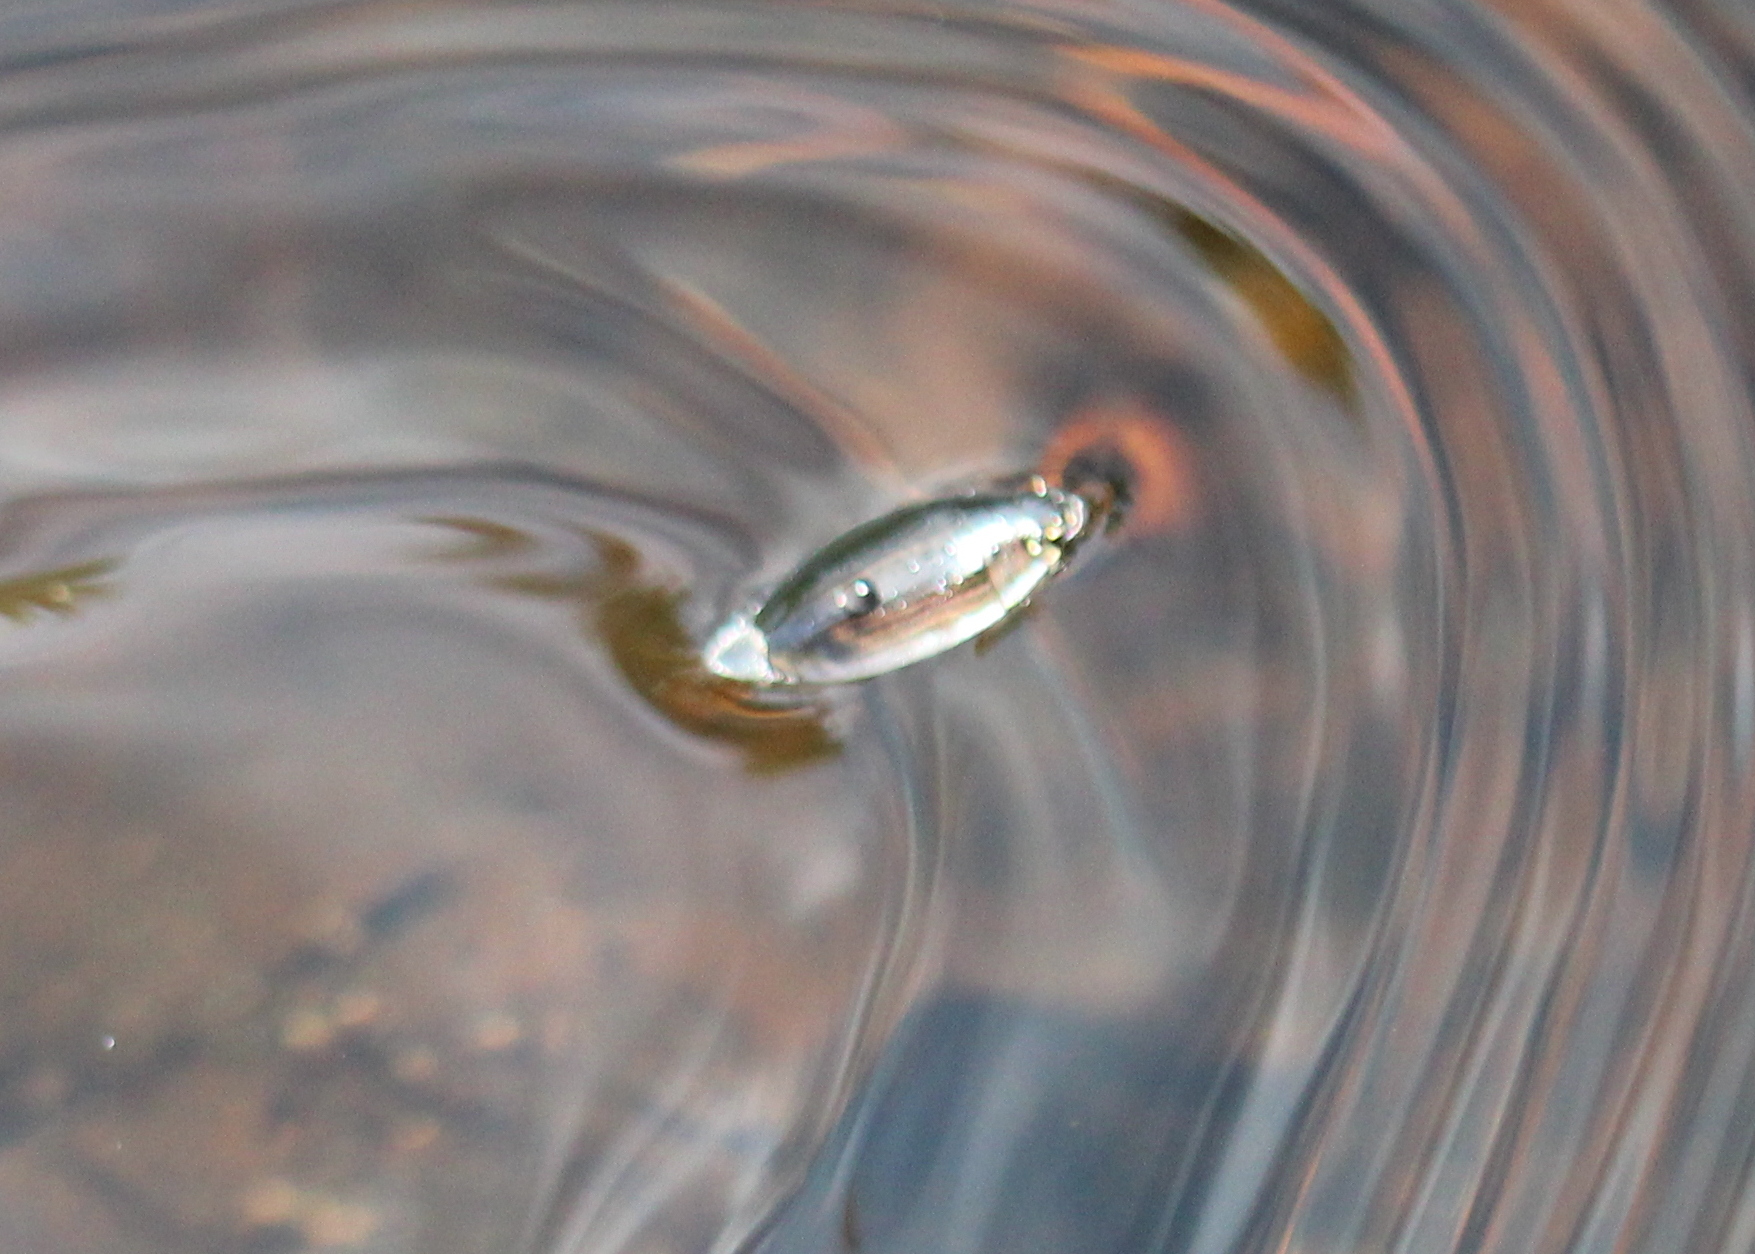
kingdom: Animalia
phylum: Arthropoda
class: Insecta
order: Coleoptera
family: Gyrinidae
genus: Dineutus
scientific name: Dineutus
